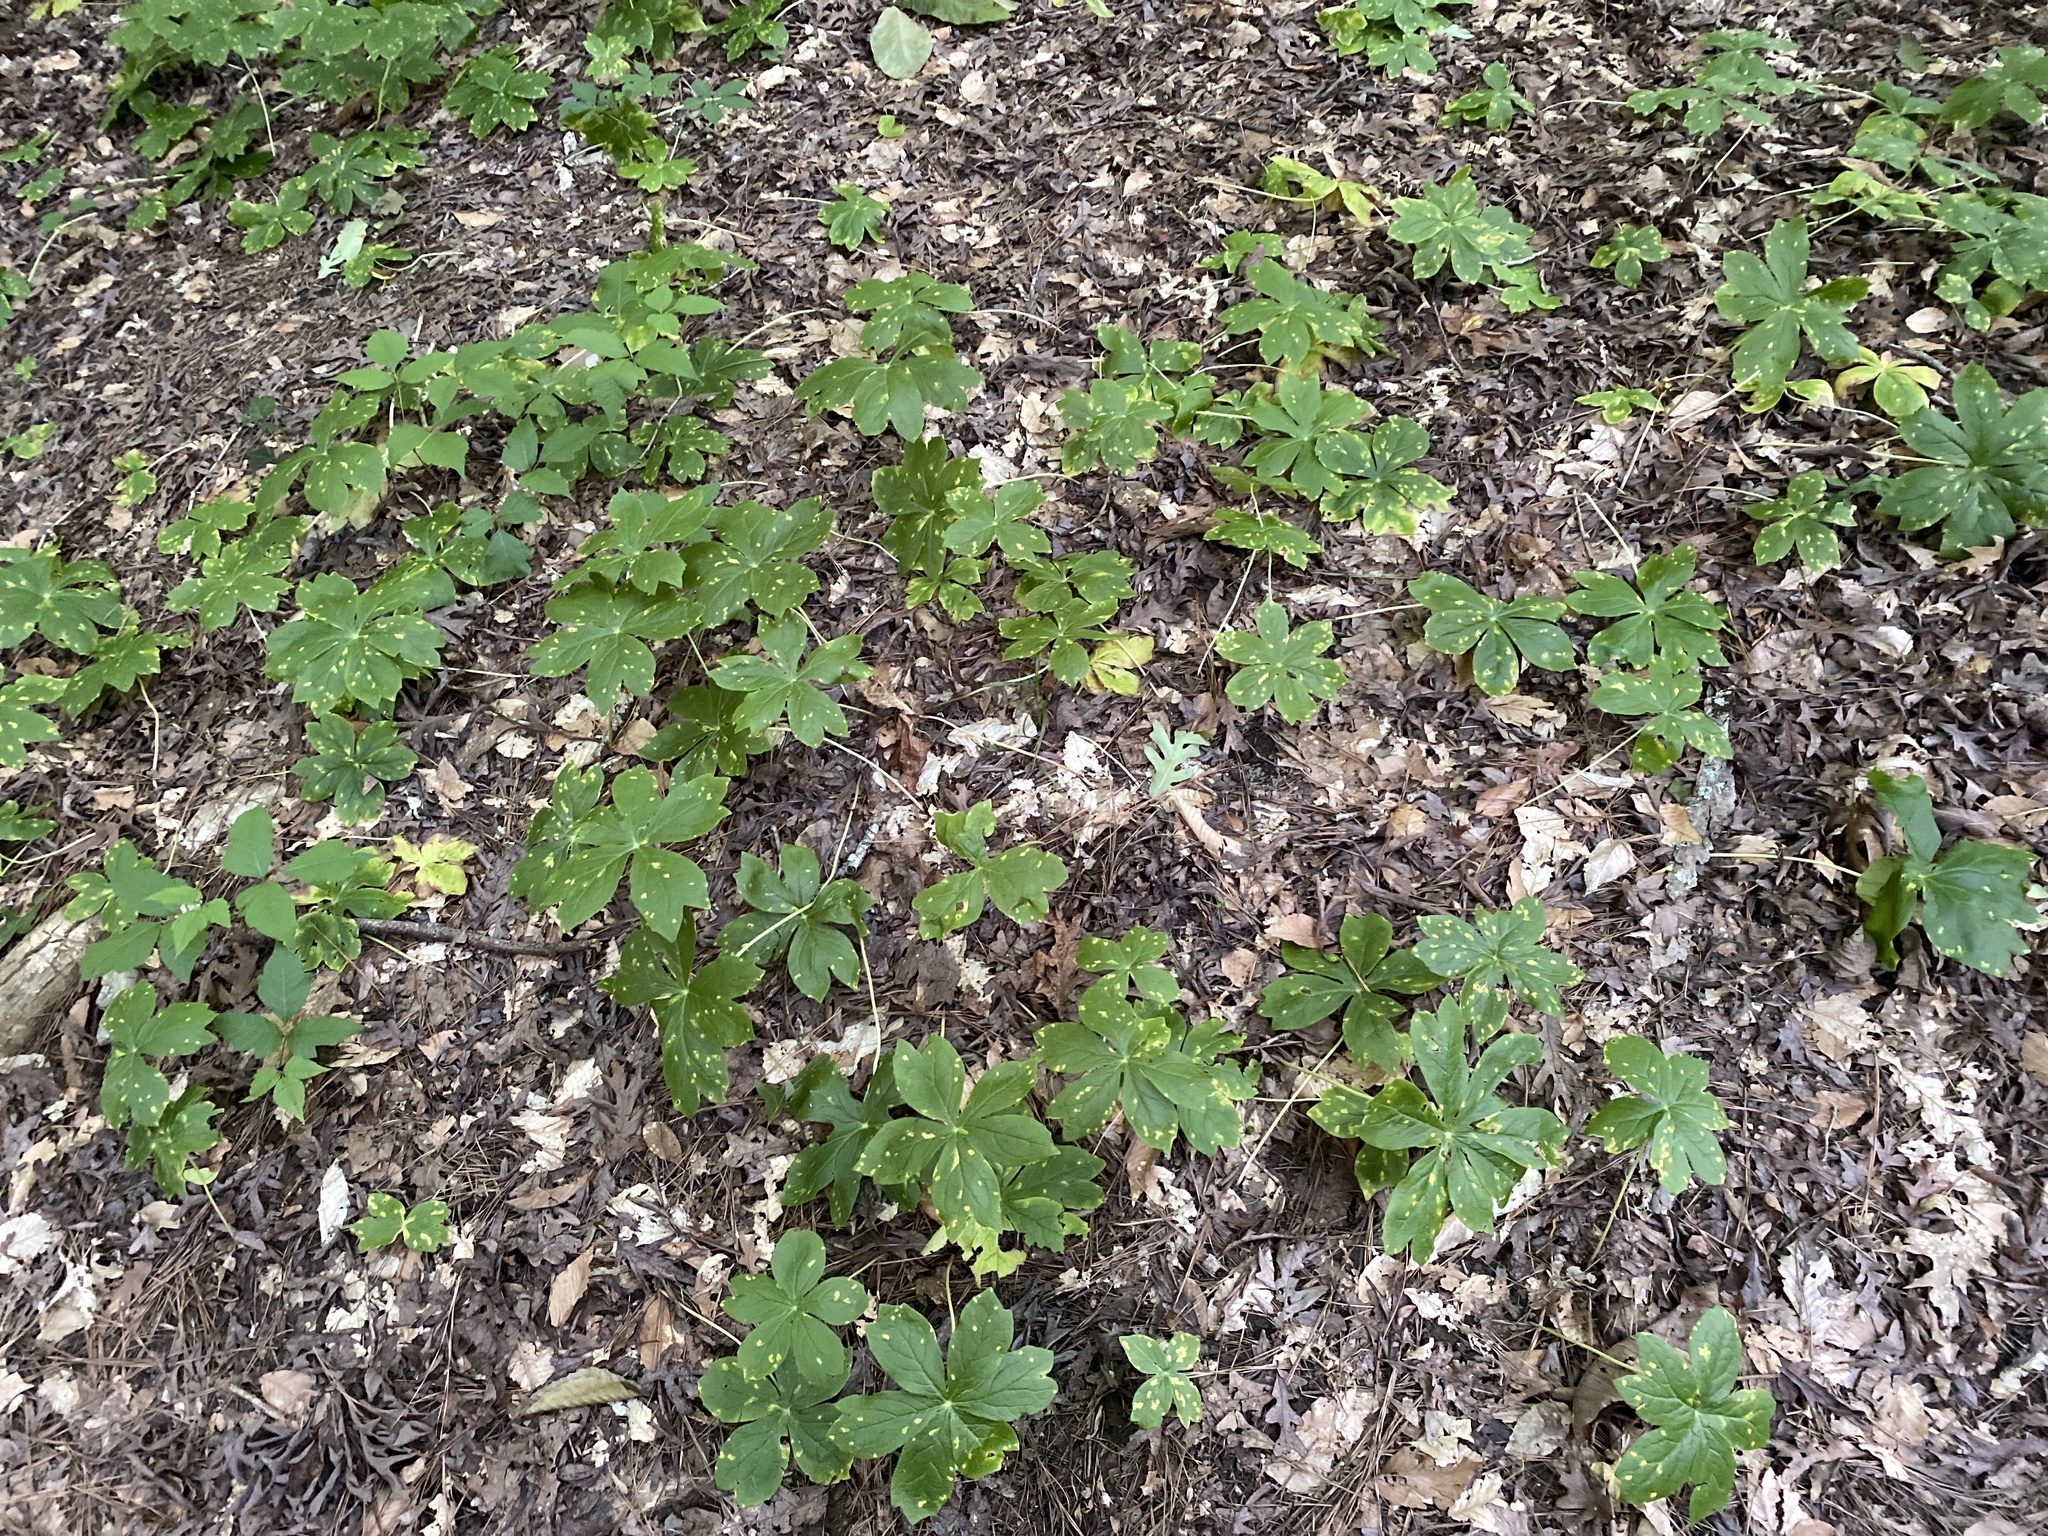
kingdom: Plantae
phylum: Tracheophyta
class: Magnoliopsida
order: Ranunculales
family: Berberidaceae
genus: Podophyllum
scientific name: Podophyllum peltatum
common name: Wild mandrake
